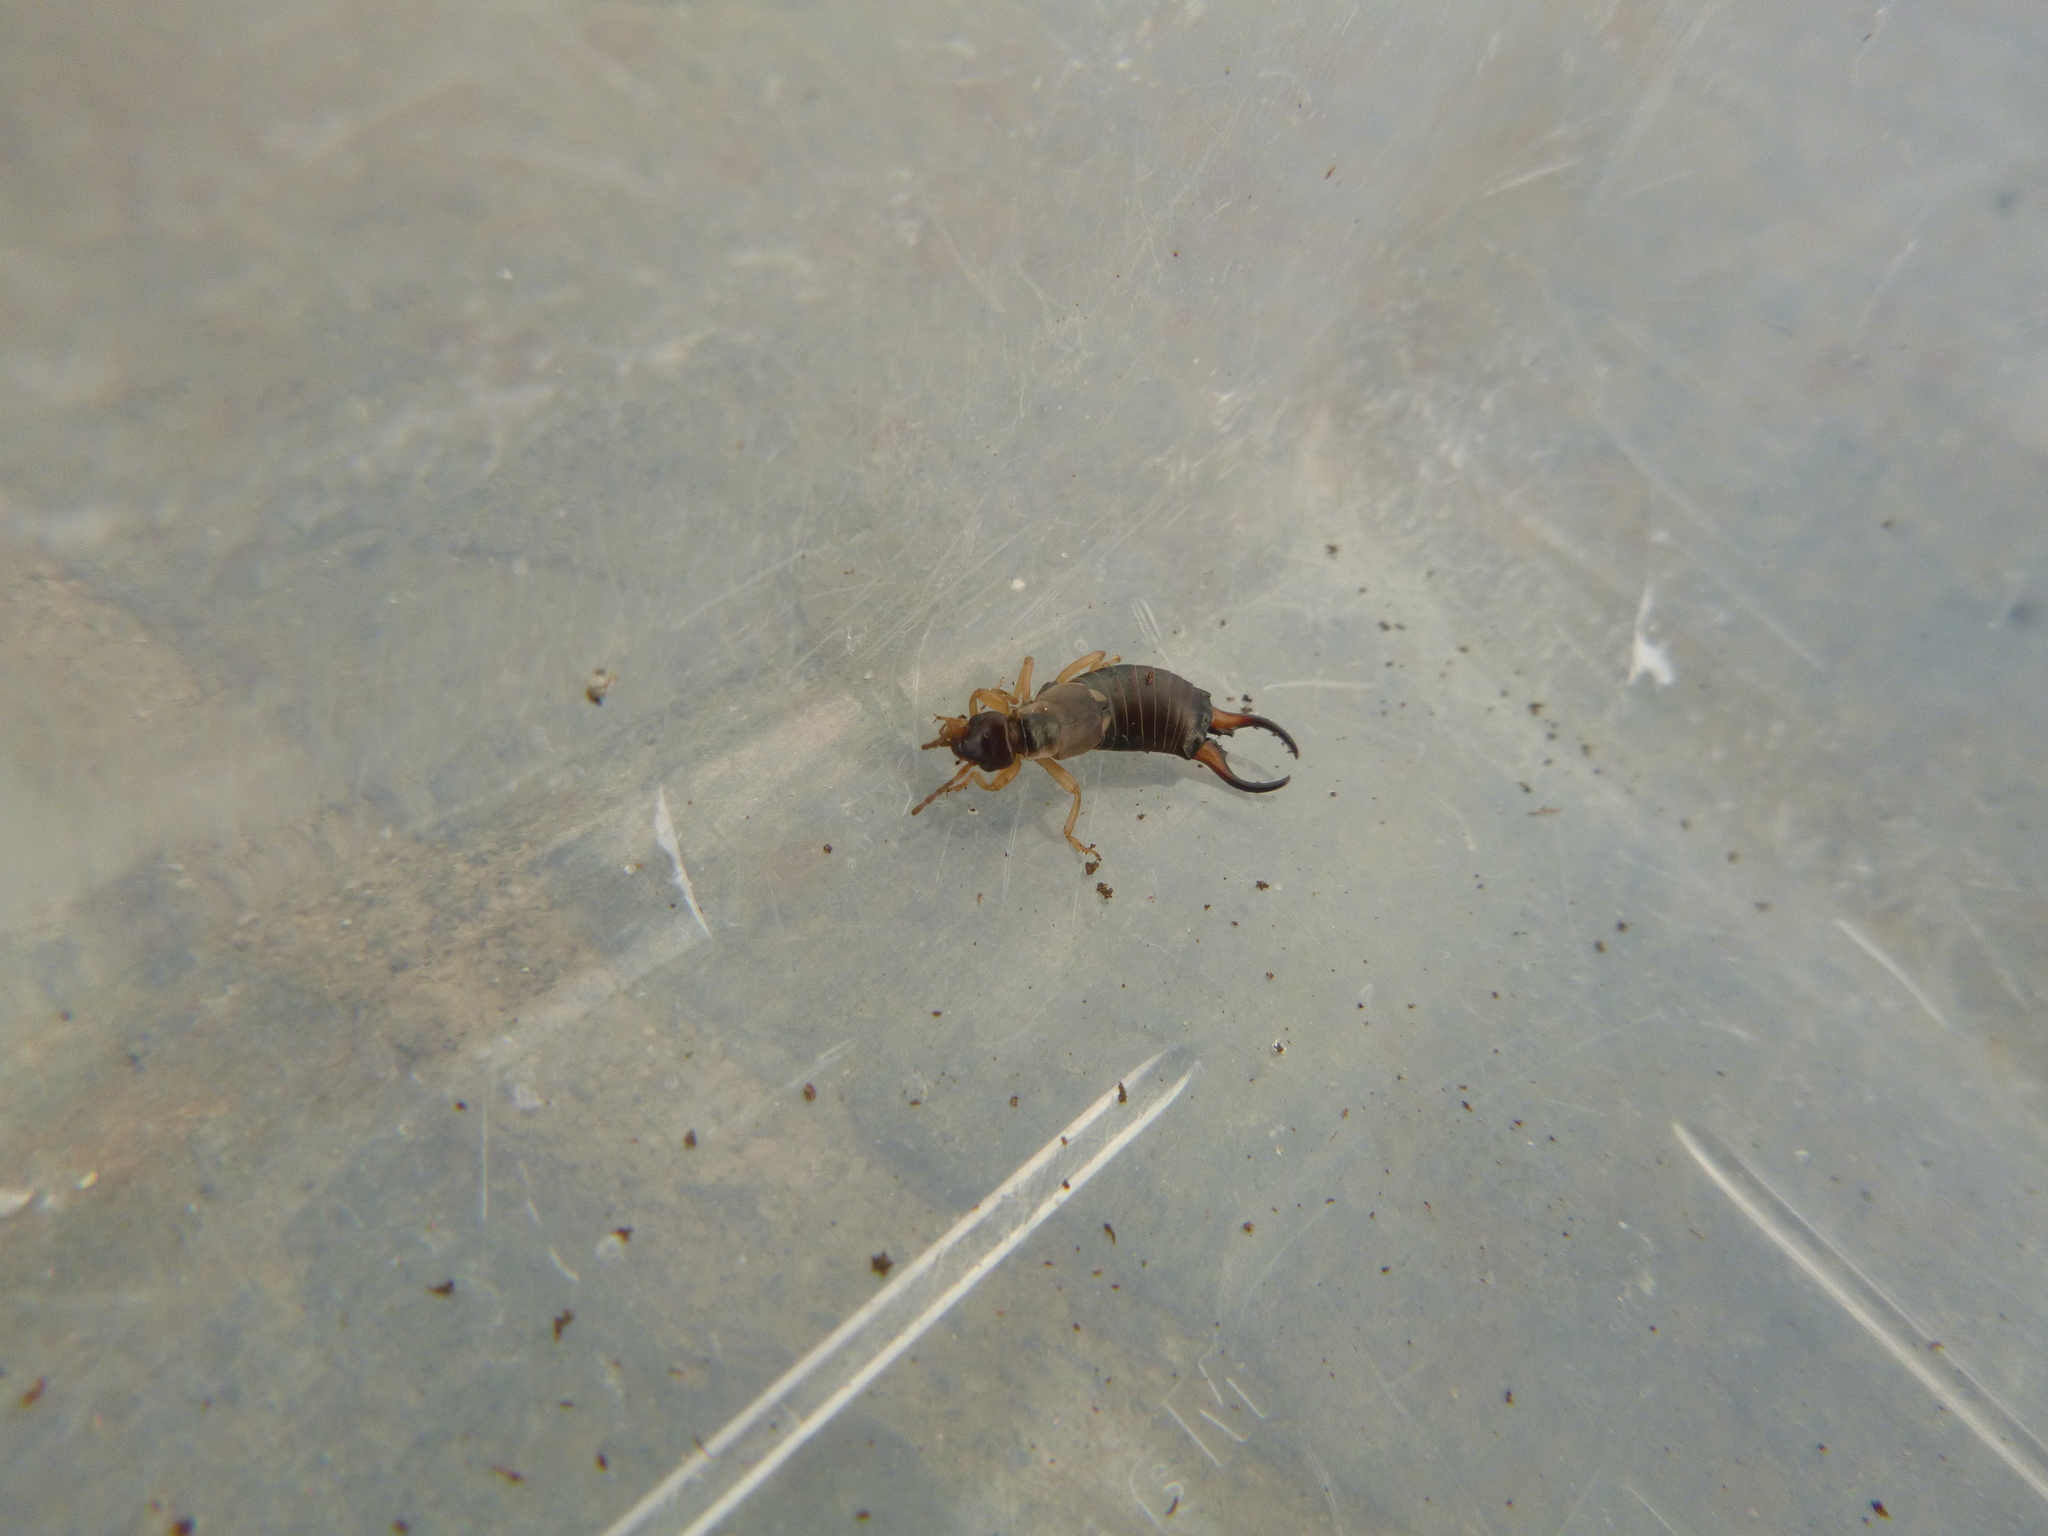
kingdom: Animalia
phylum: Arthropoda
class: Insecta
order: Dermaptera
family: Forficulidae
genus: Forficula
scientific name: Forficula
